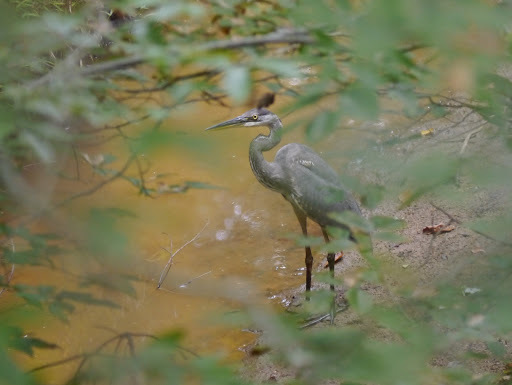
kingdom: Animalia
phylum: Chordata
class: Aves
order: Pelecaniformes
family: Ardeidae
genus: Ardea
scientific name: Ardea herodias
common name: Great blue heron
